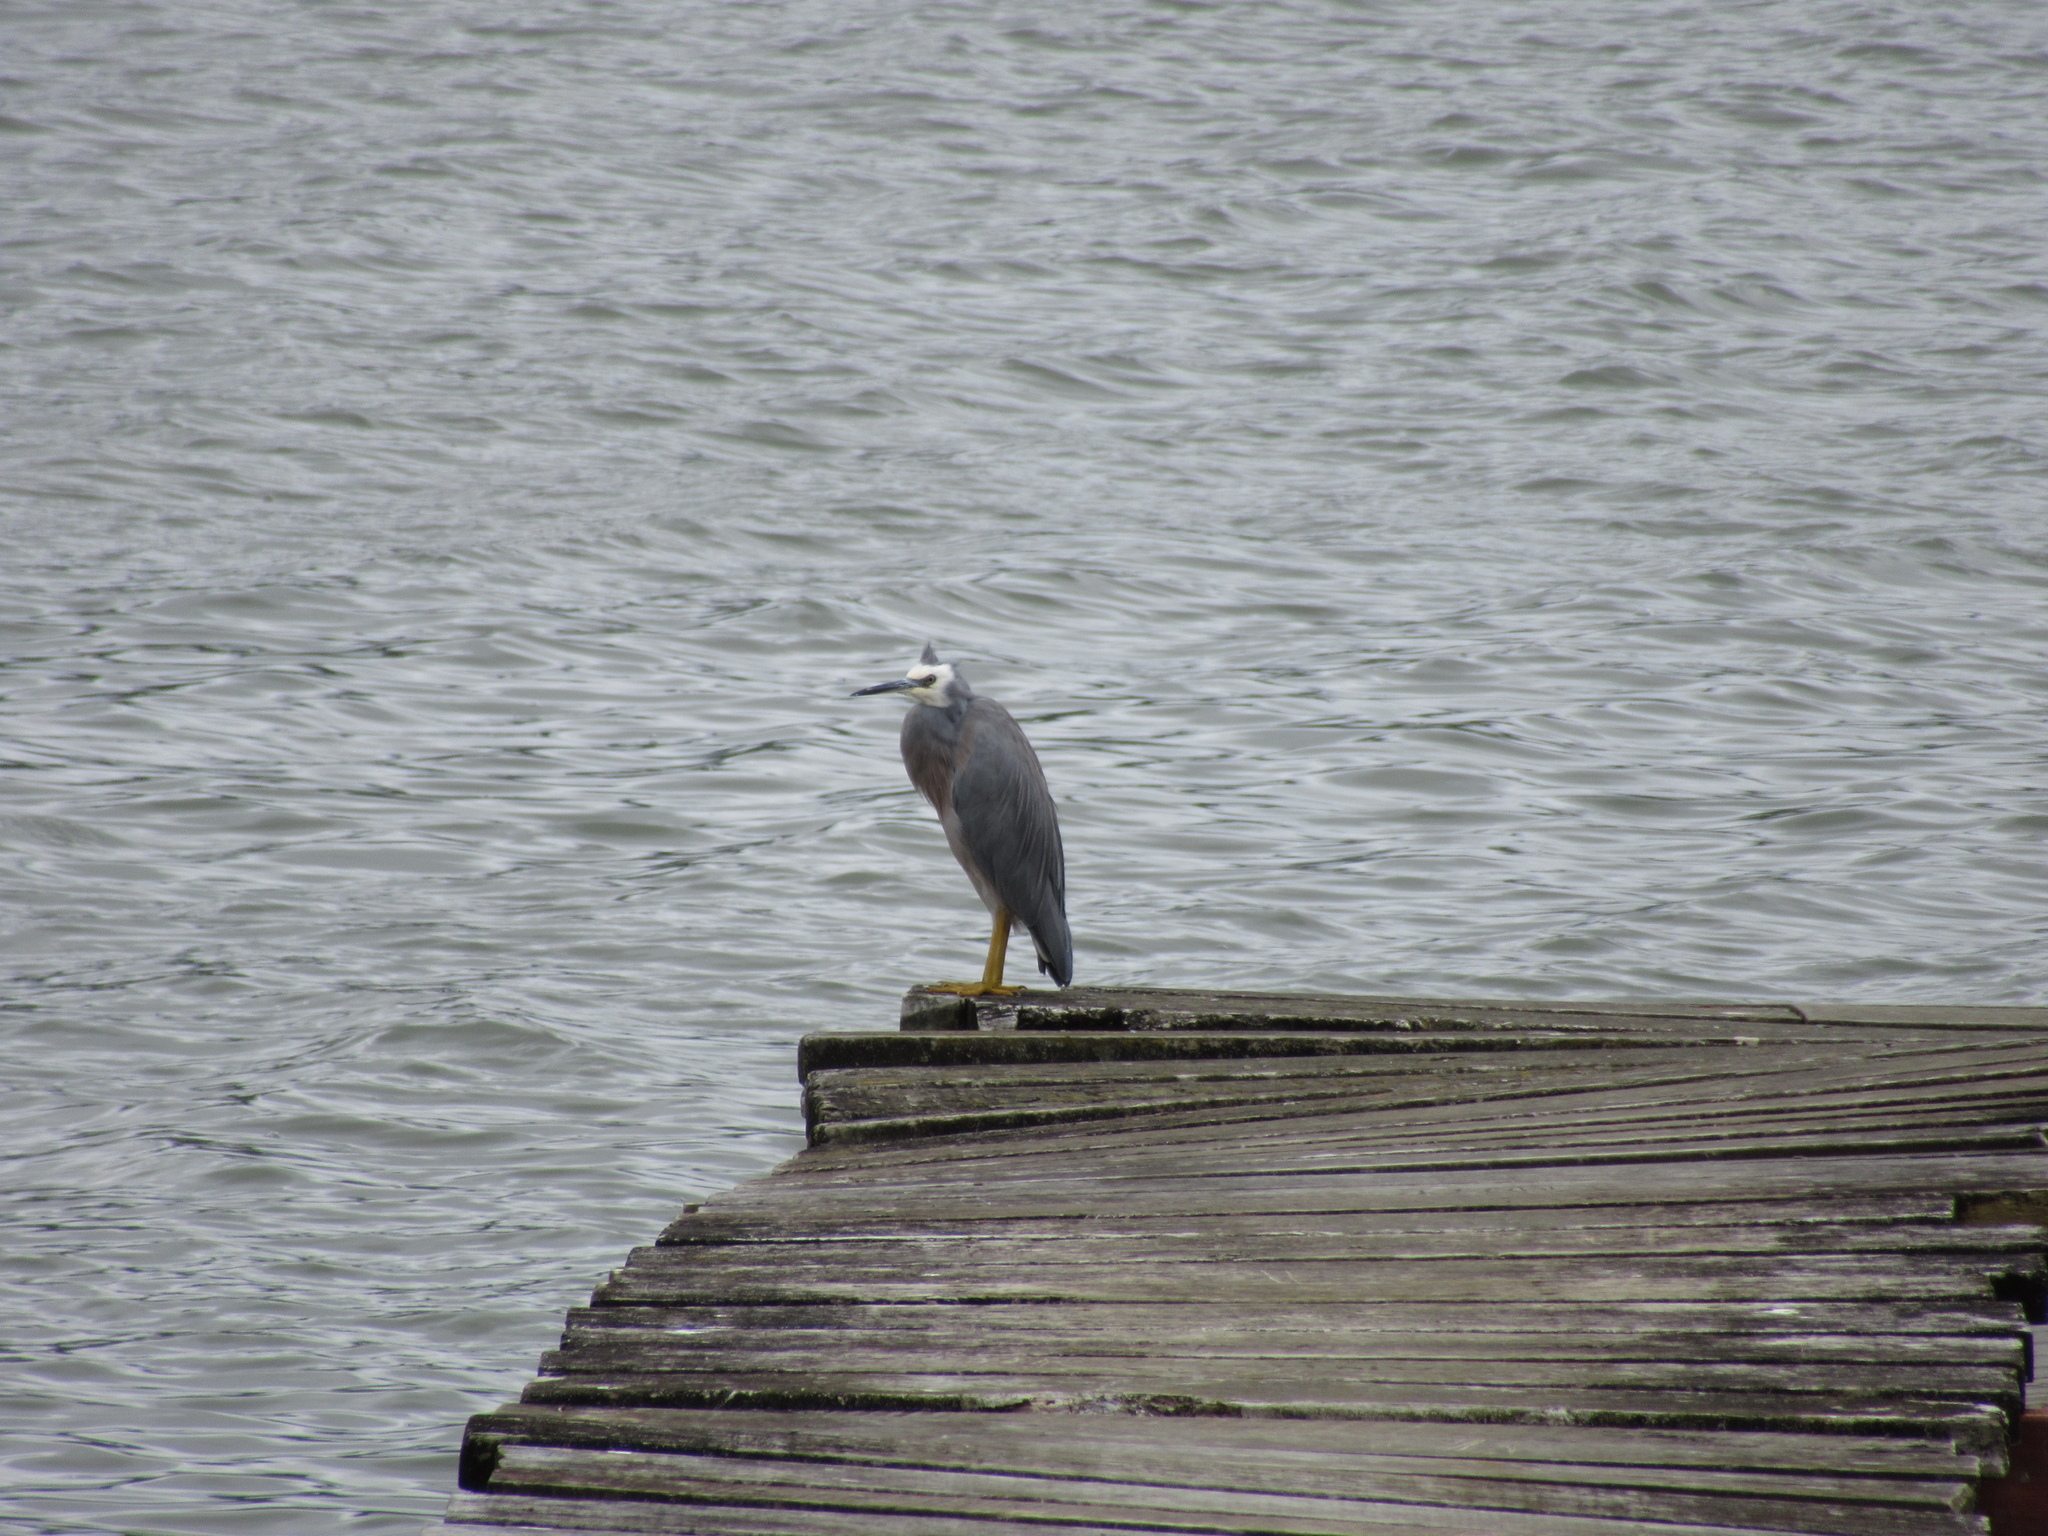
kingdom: Animalia
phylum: Chordata
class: Aves
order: Pelecaniformes
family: Ardeidae
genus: Egretta
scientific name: Egretta novaehollandiae
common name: White-faced heron
